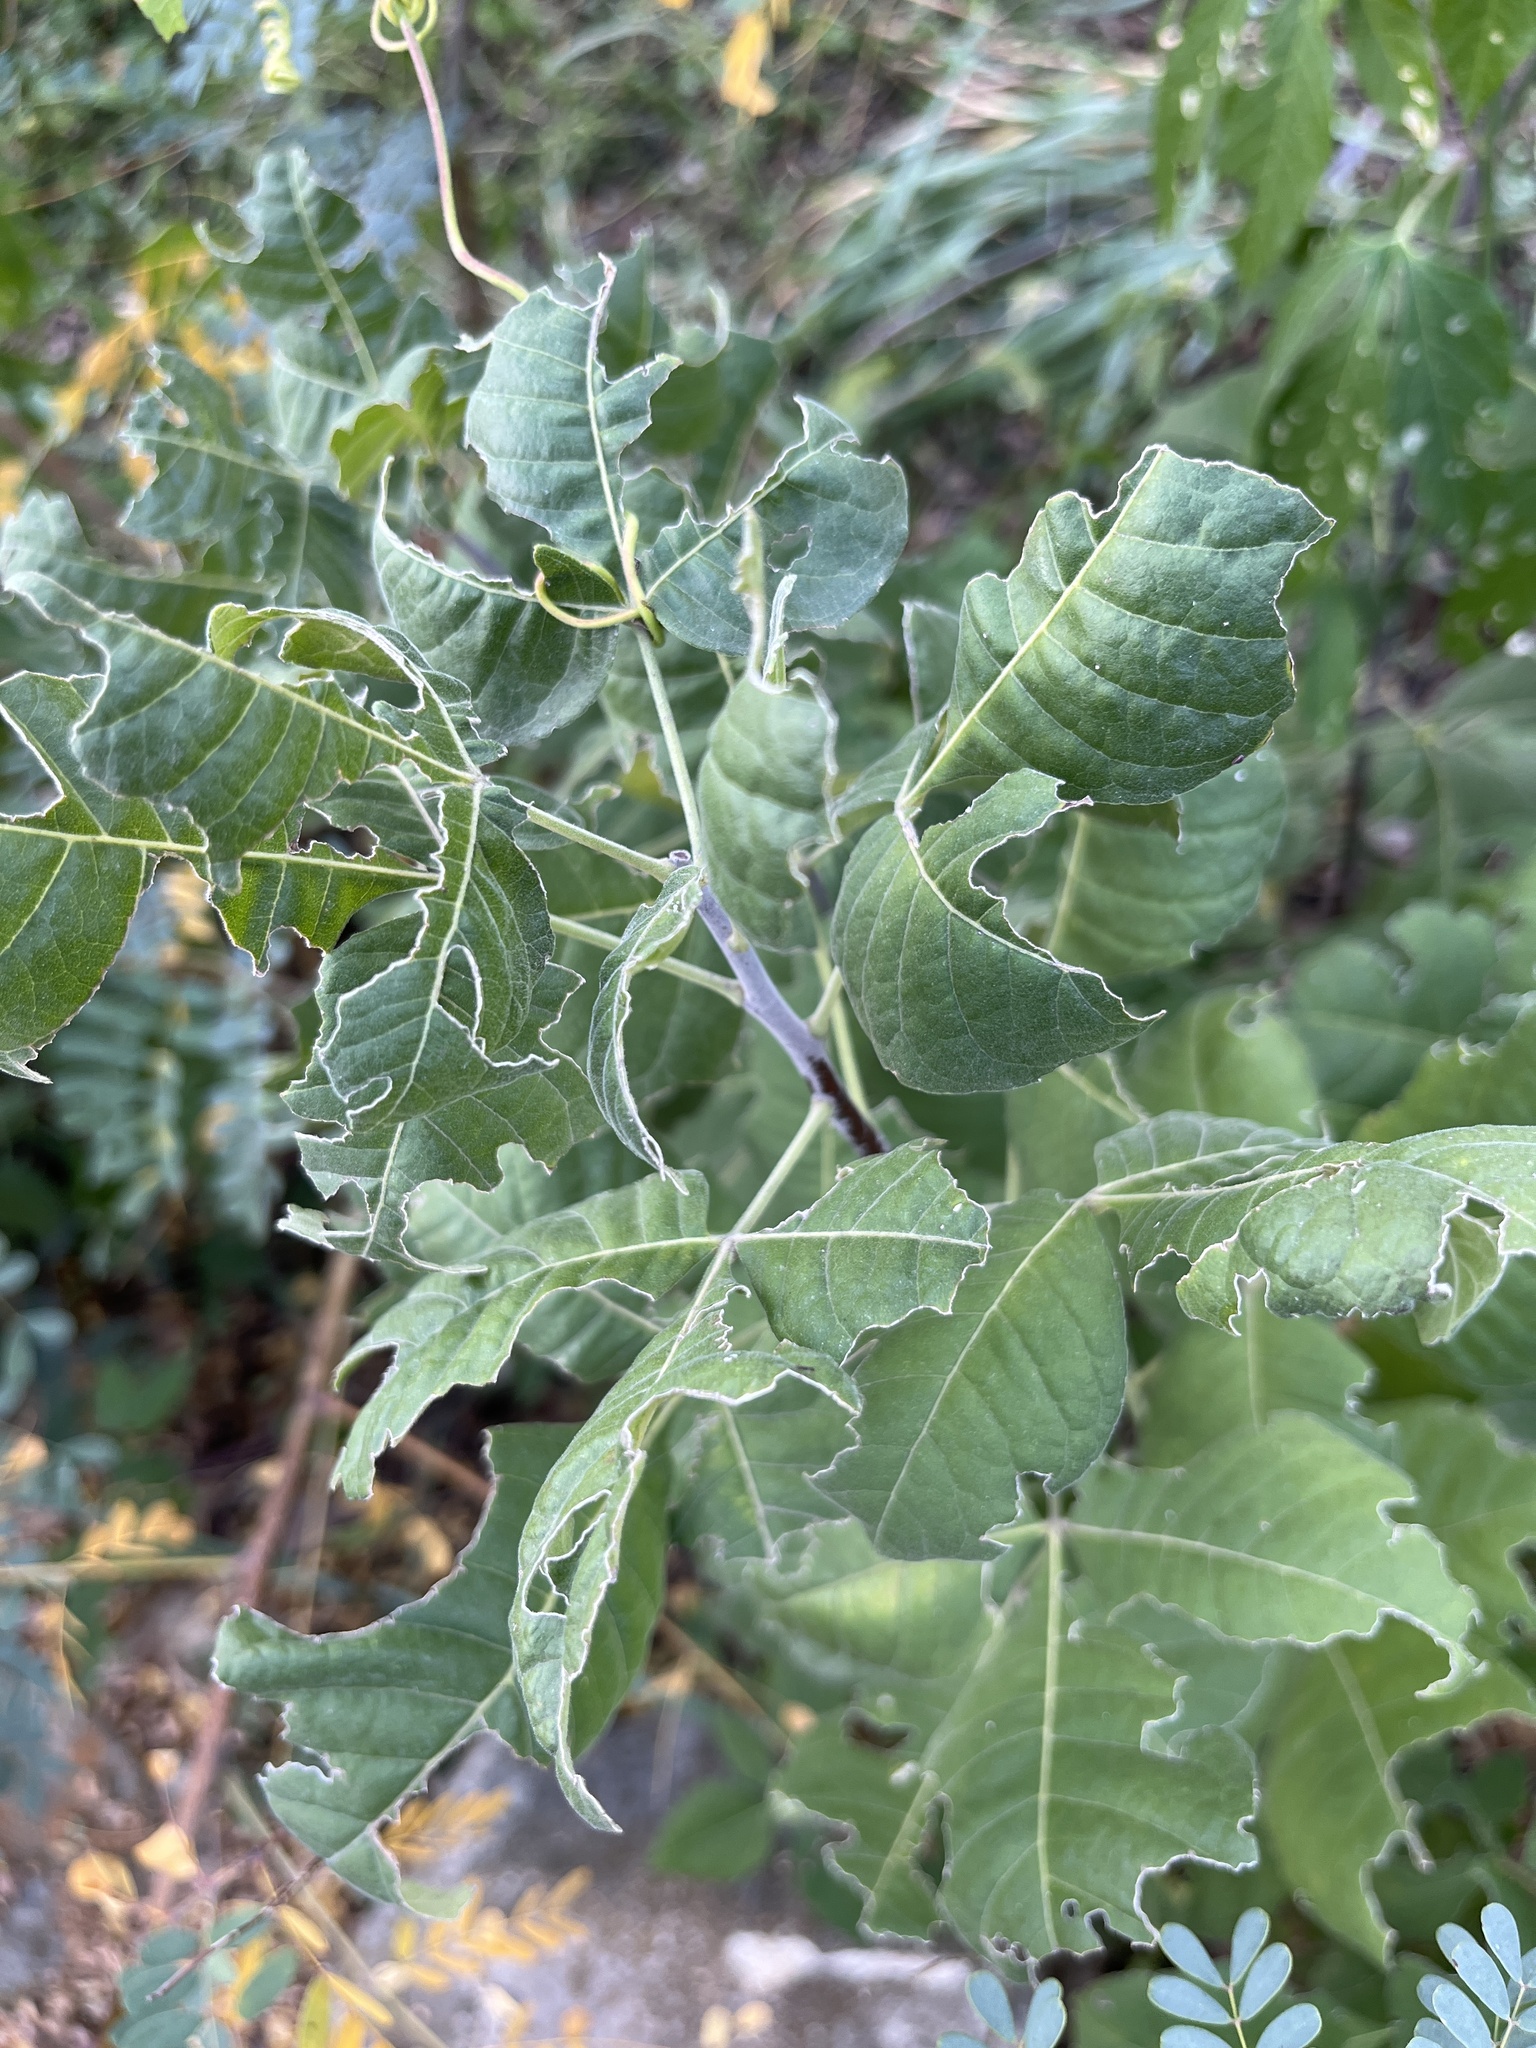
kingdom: Plantae
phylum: Tracheophyta
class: Magnoliopsida
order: Sapindales
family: Rutaceae
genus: Ptelea
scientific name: Ptelea trifoliata
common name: Common hop-tree
